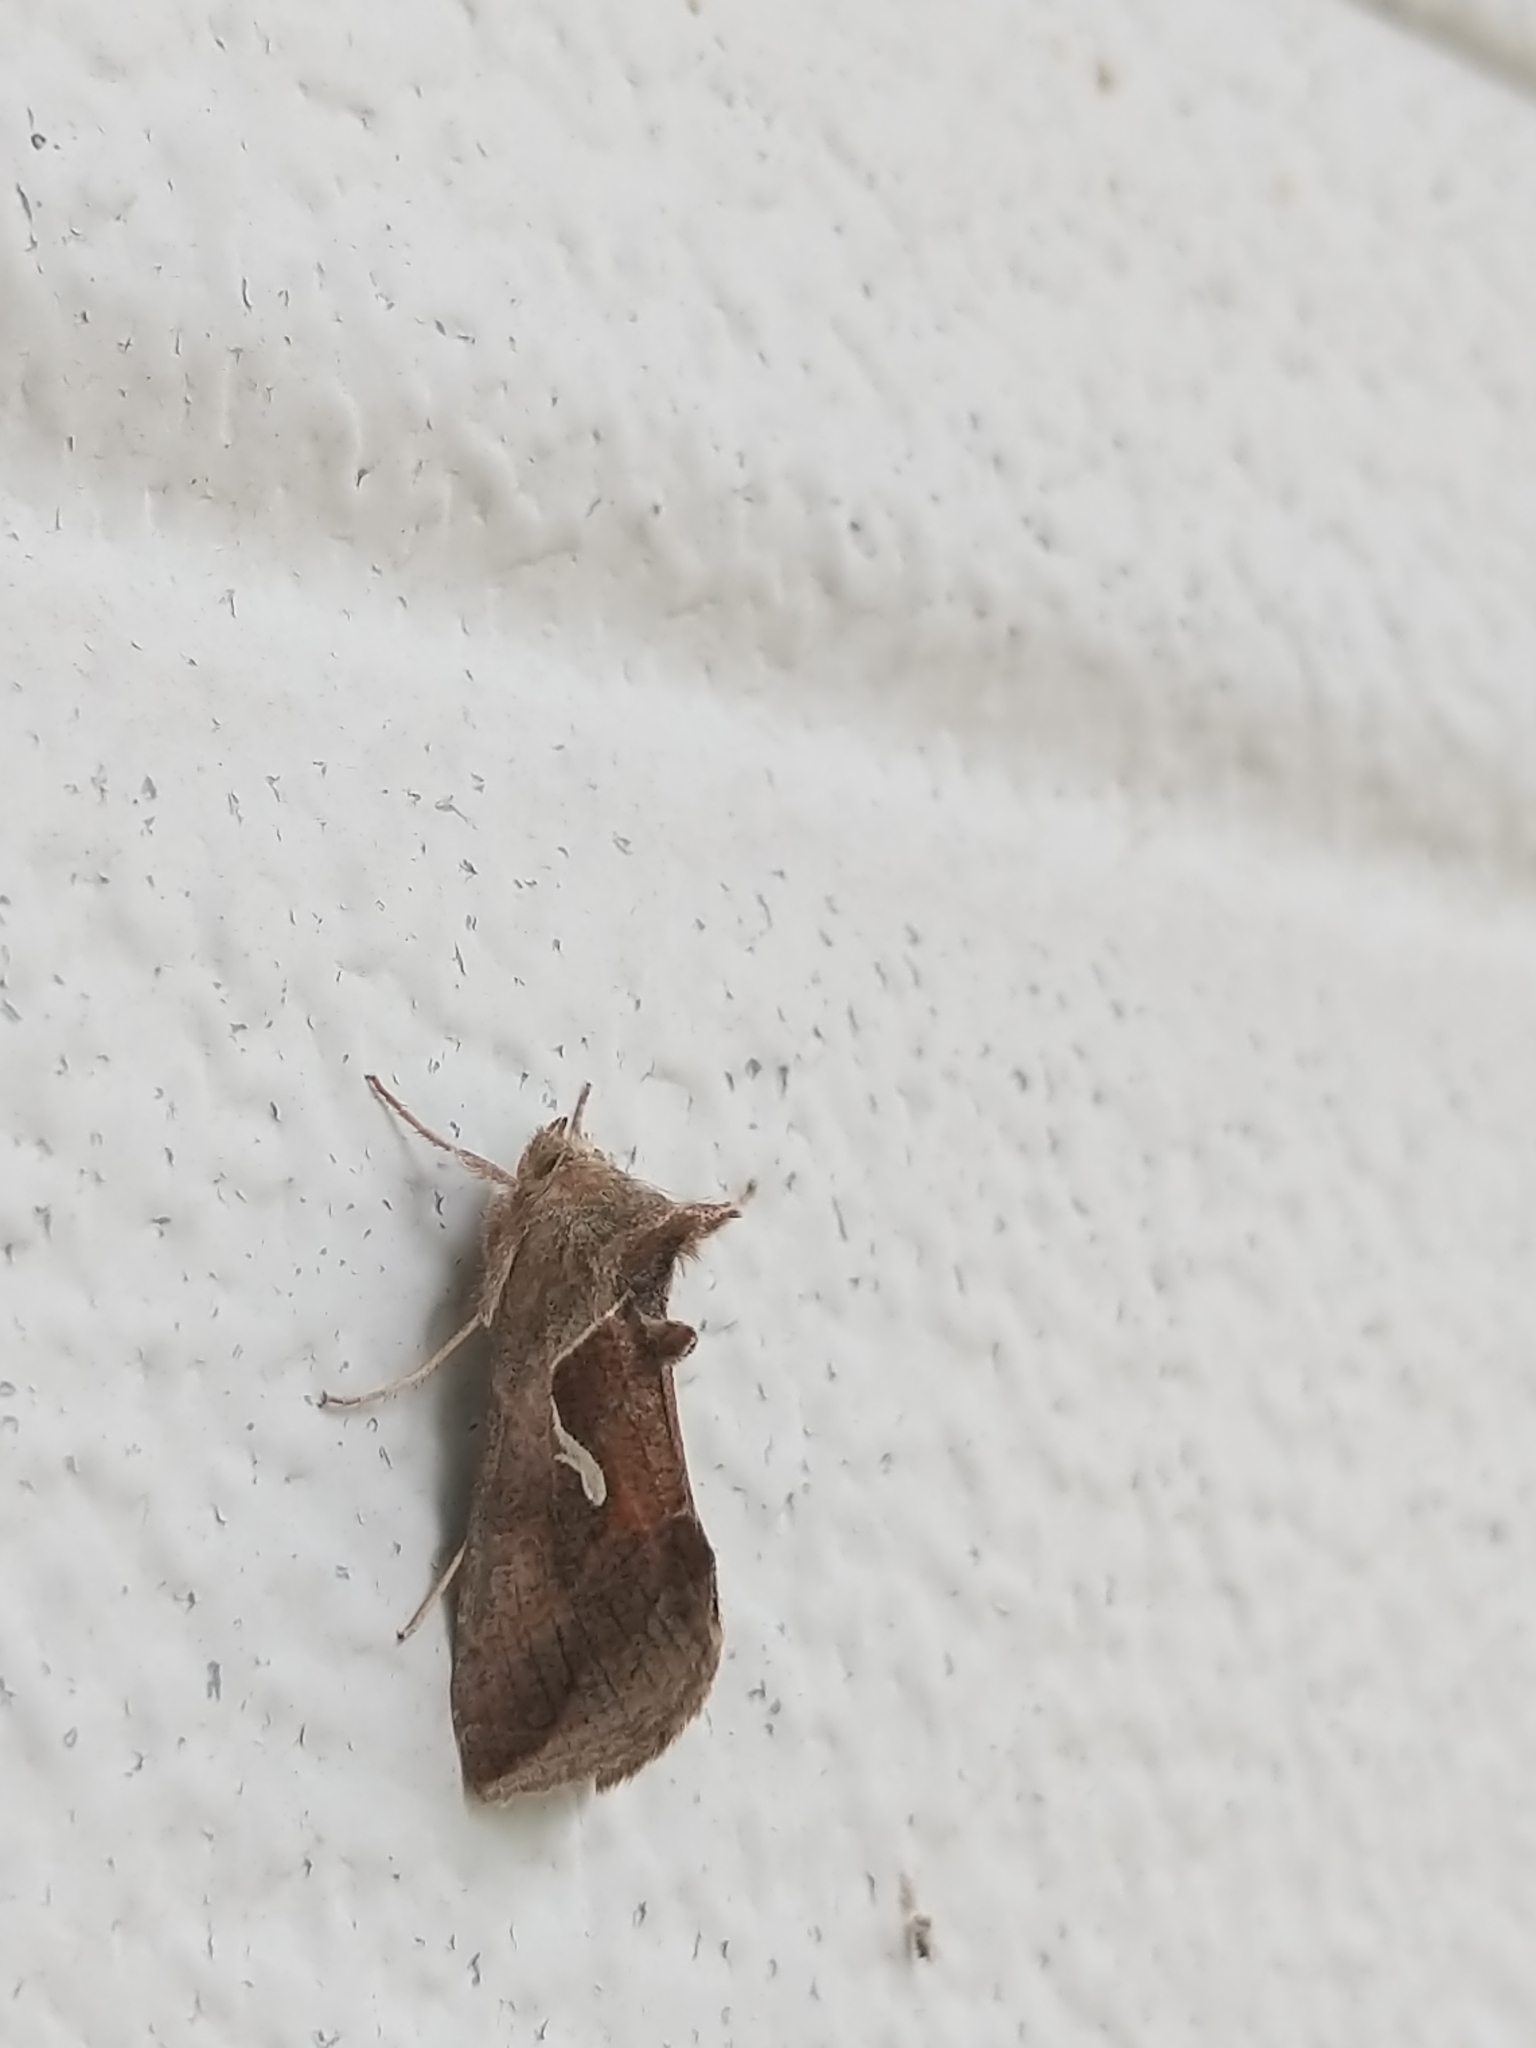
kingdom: Animalia
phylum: Arthropoda
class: Insecta
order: Lepidoptera
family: Noctuidae
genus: Anagrapha
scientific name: Anagrapha falcifera
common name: Celery looper
